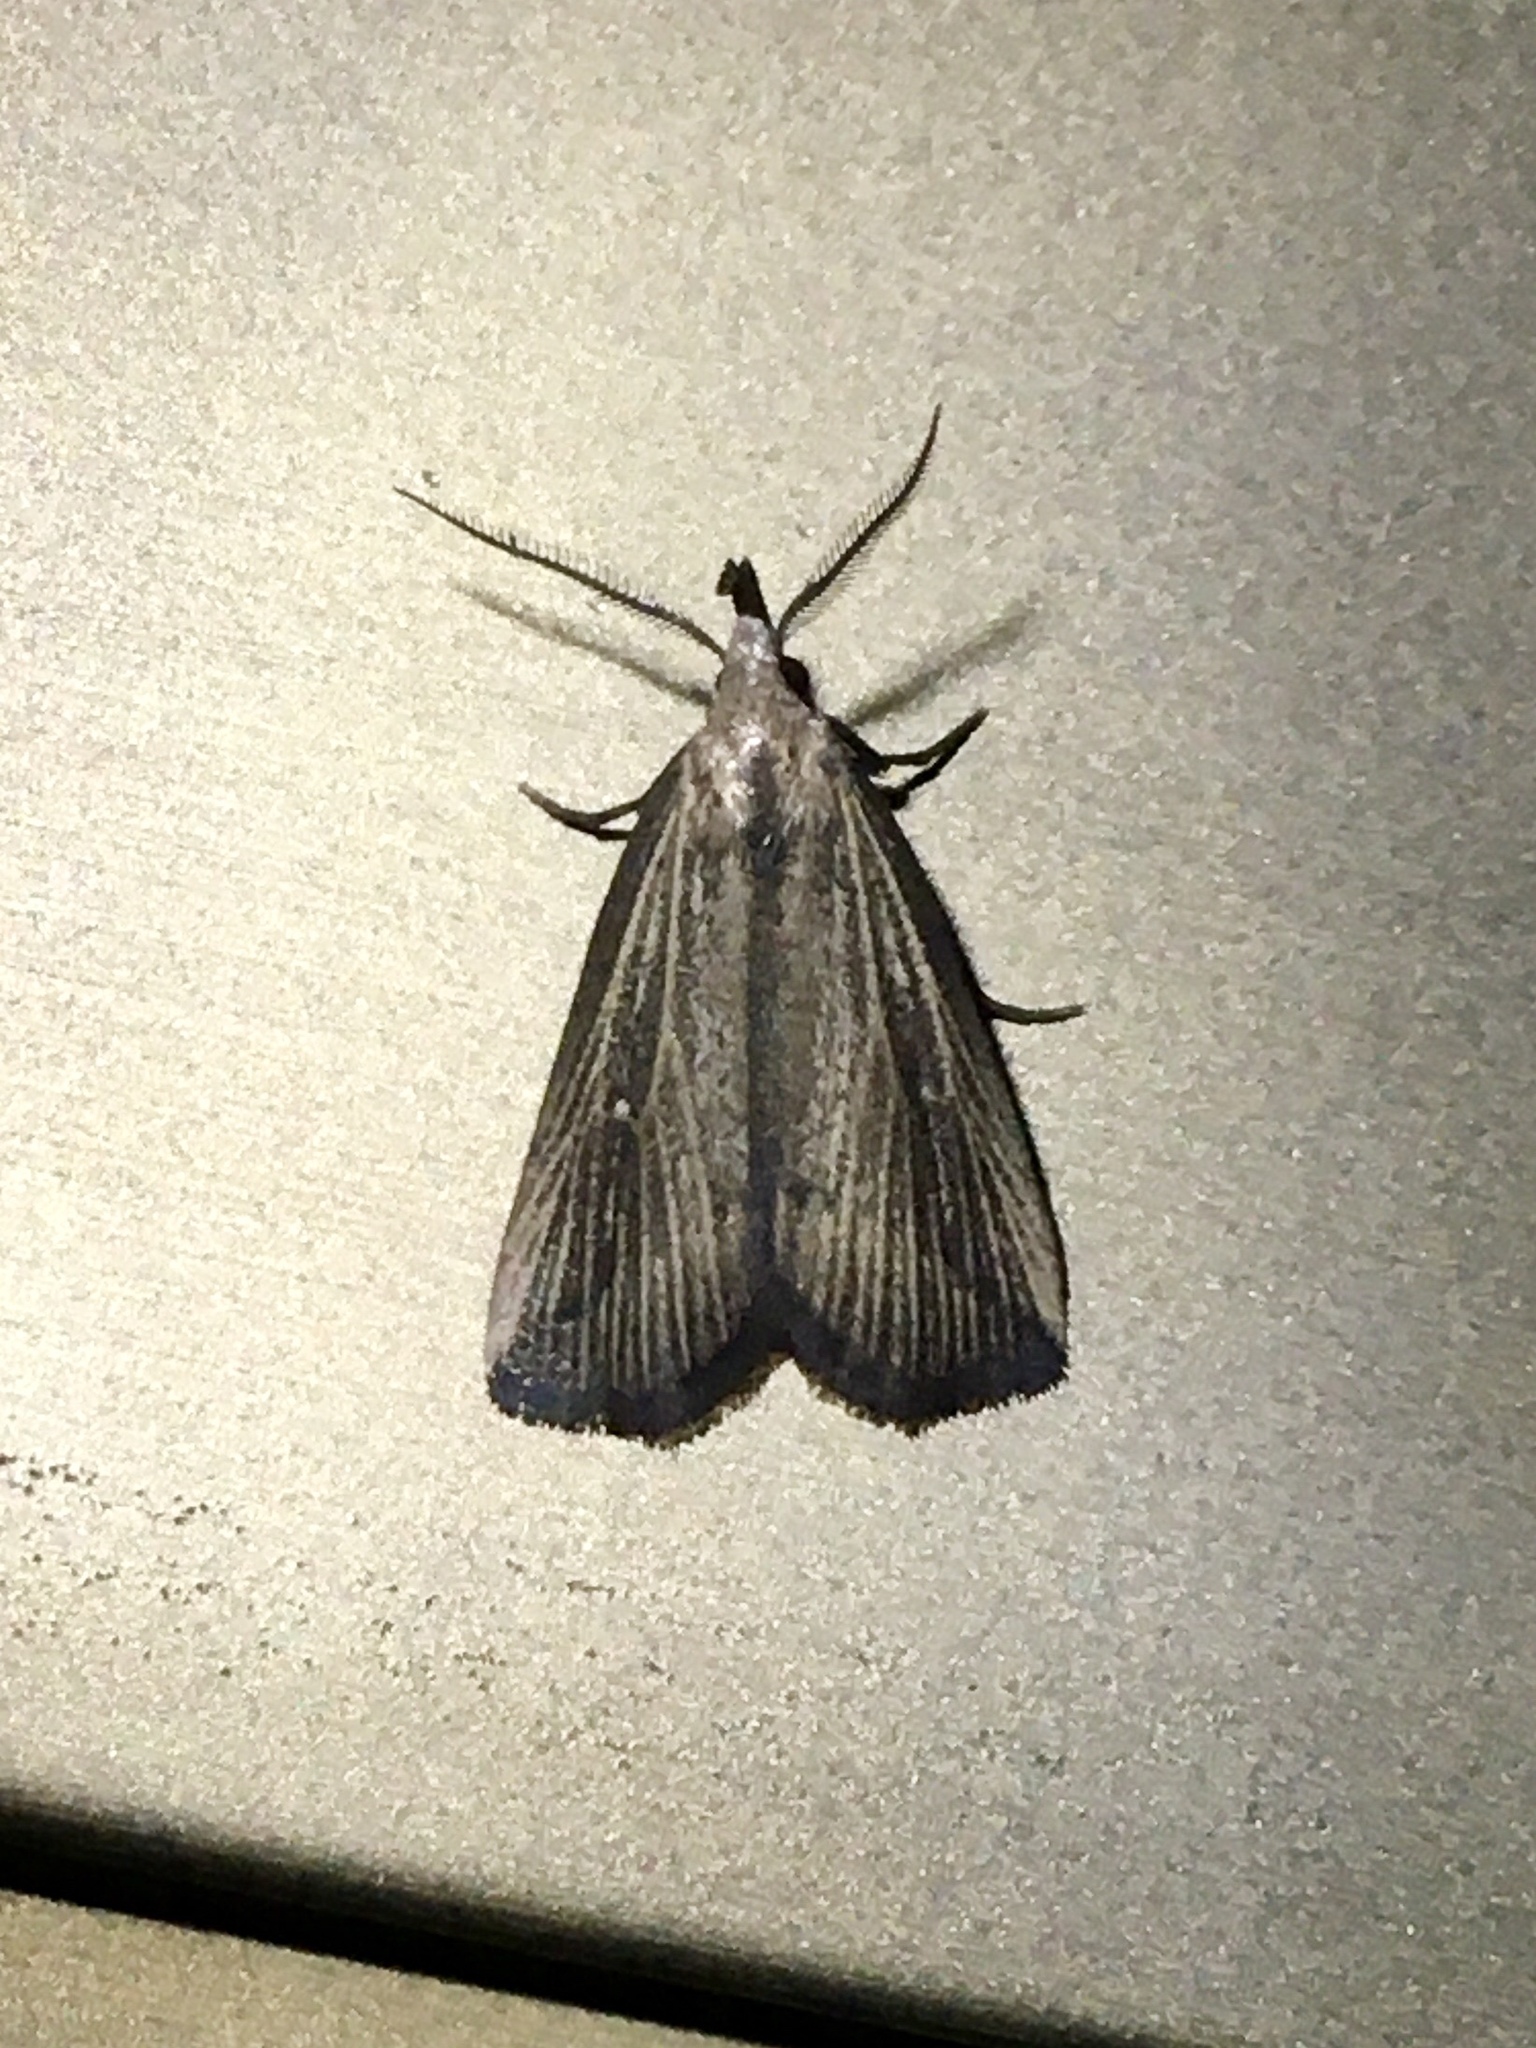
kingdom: Animalia
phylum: Arthropoda
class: Insecta
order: Lepidoptera
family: Erebidae
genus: Macrochilo
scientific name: Macrochilo orciferalis
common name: Bronzy owlet
